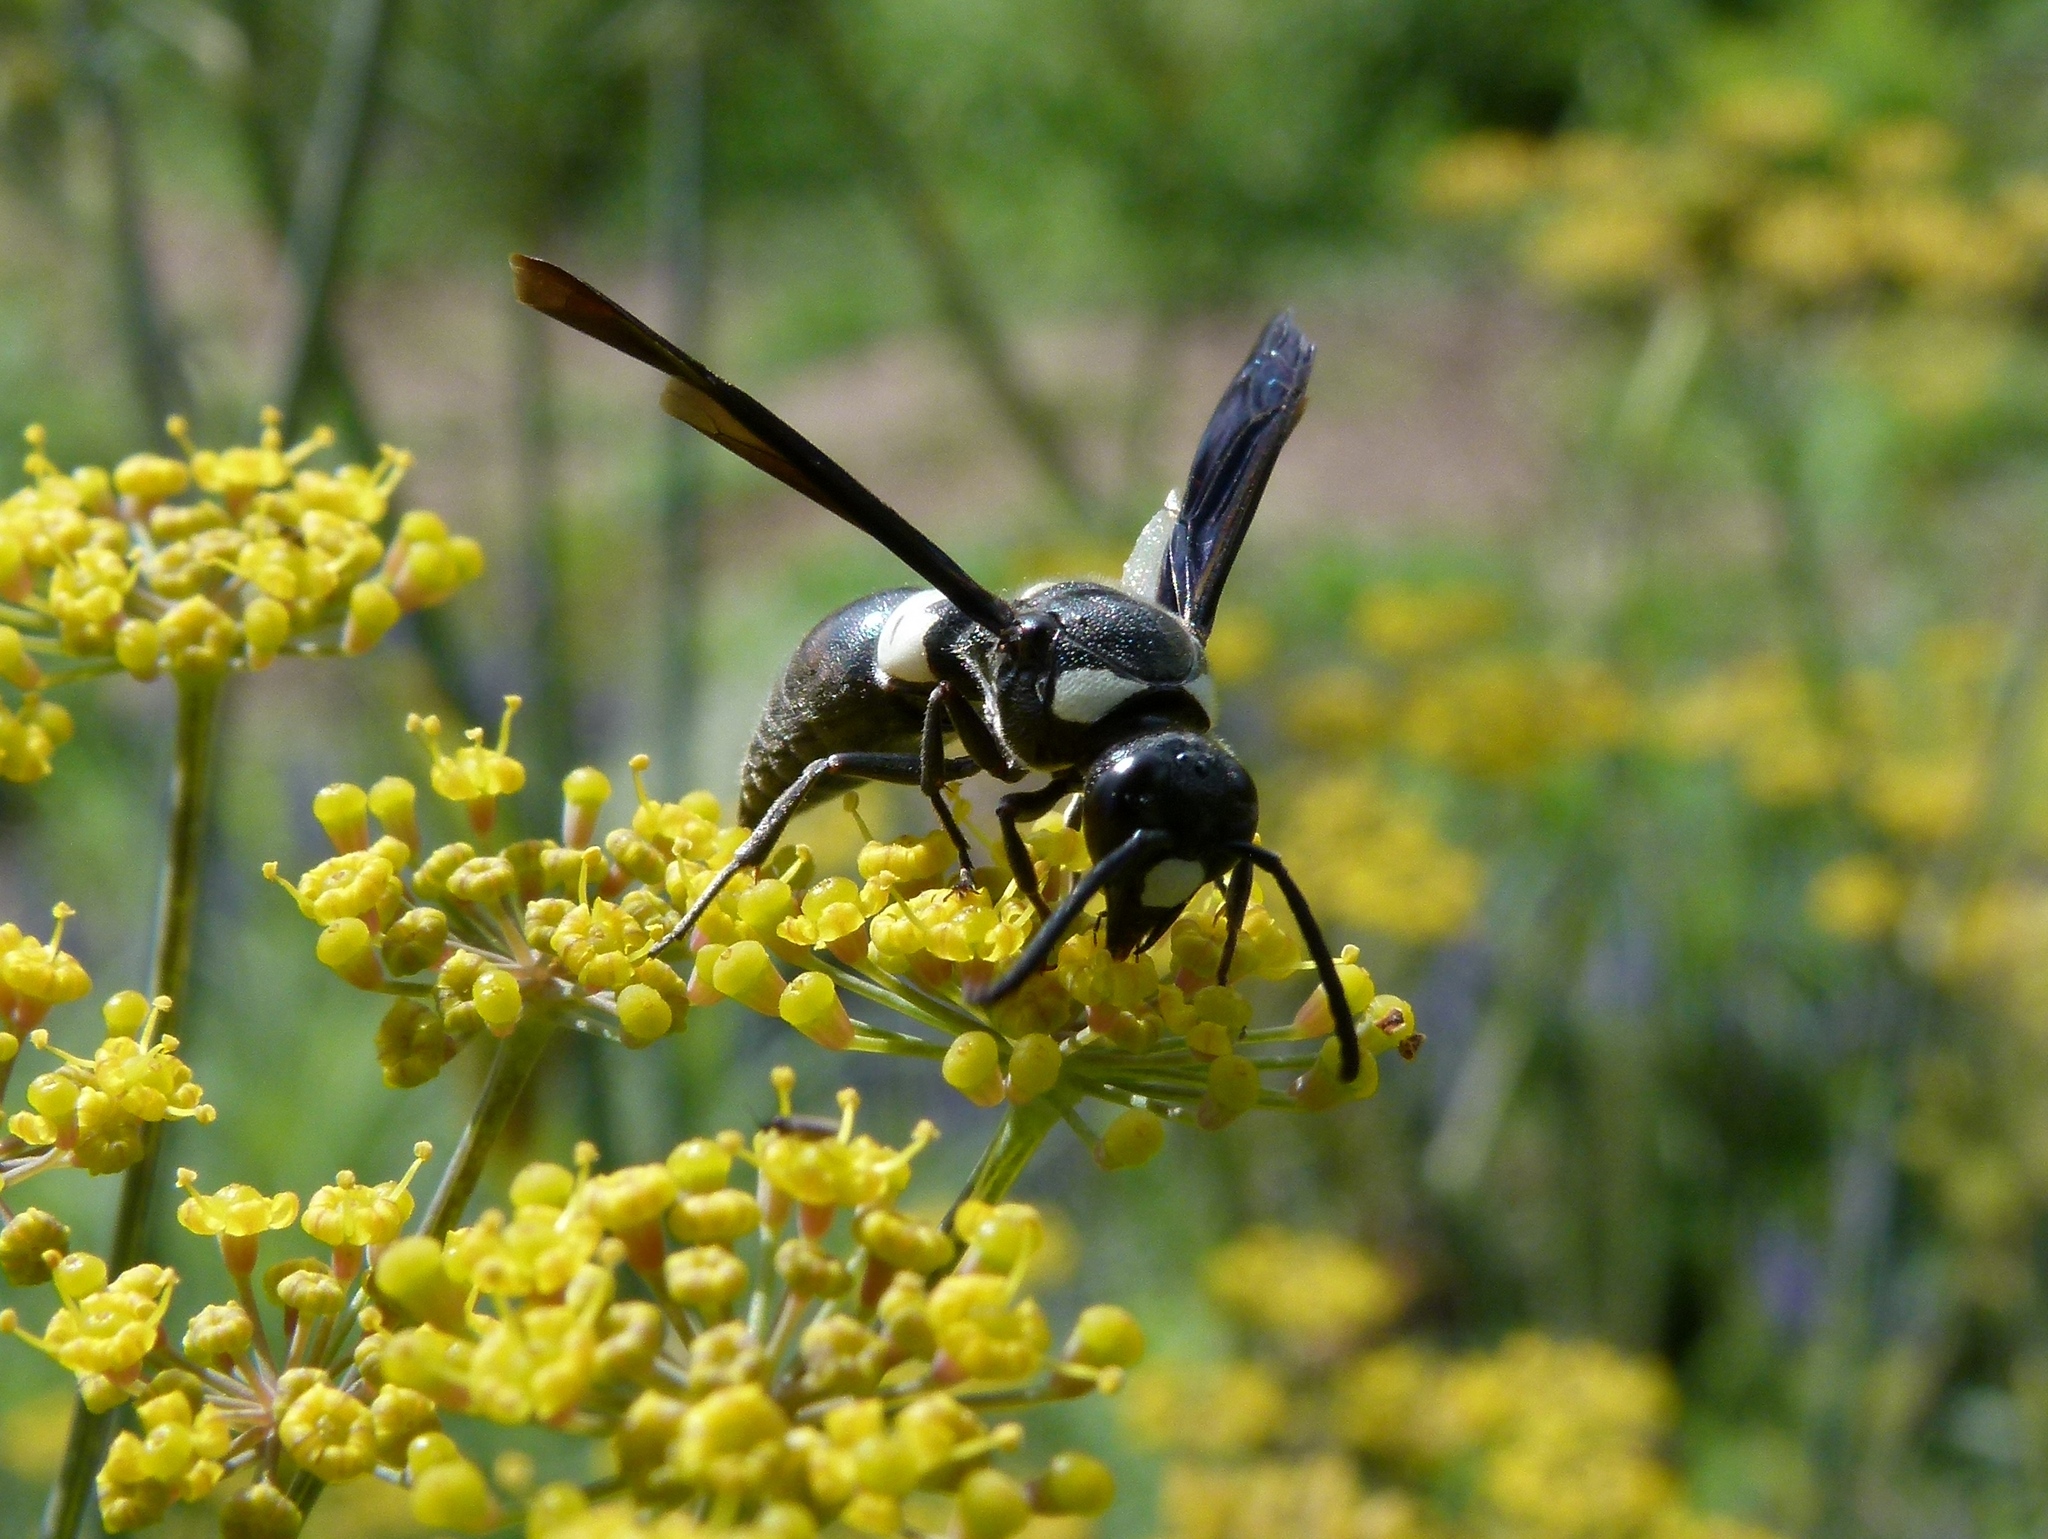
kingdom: Animalia
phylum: Arthropoda
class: Insecta
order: Hymenoptera
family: Eumenidae
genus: Monobia
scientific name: Monobia quadridens
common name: Four-toothed mason wasp
